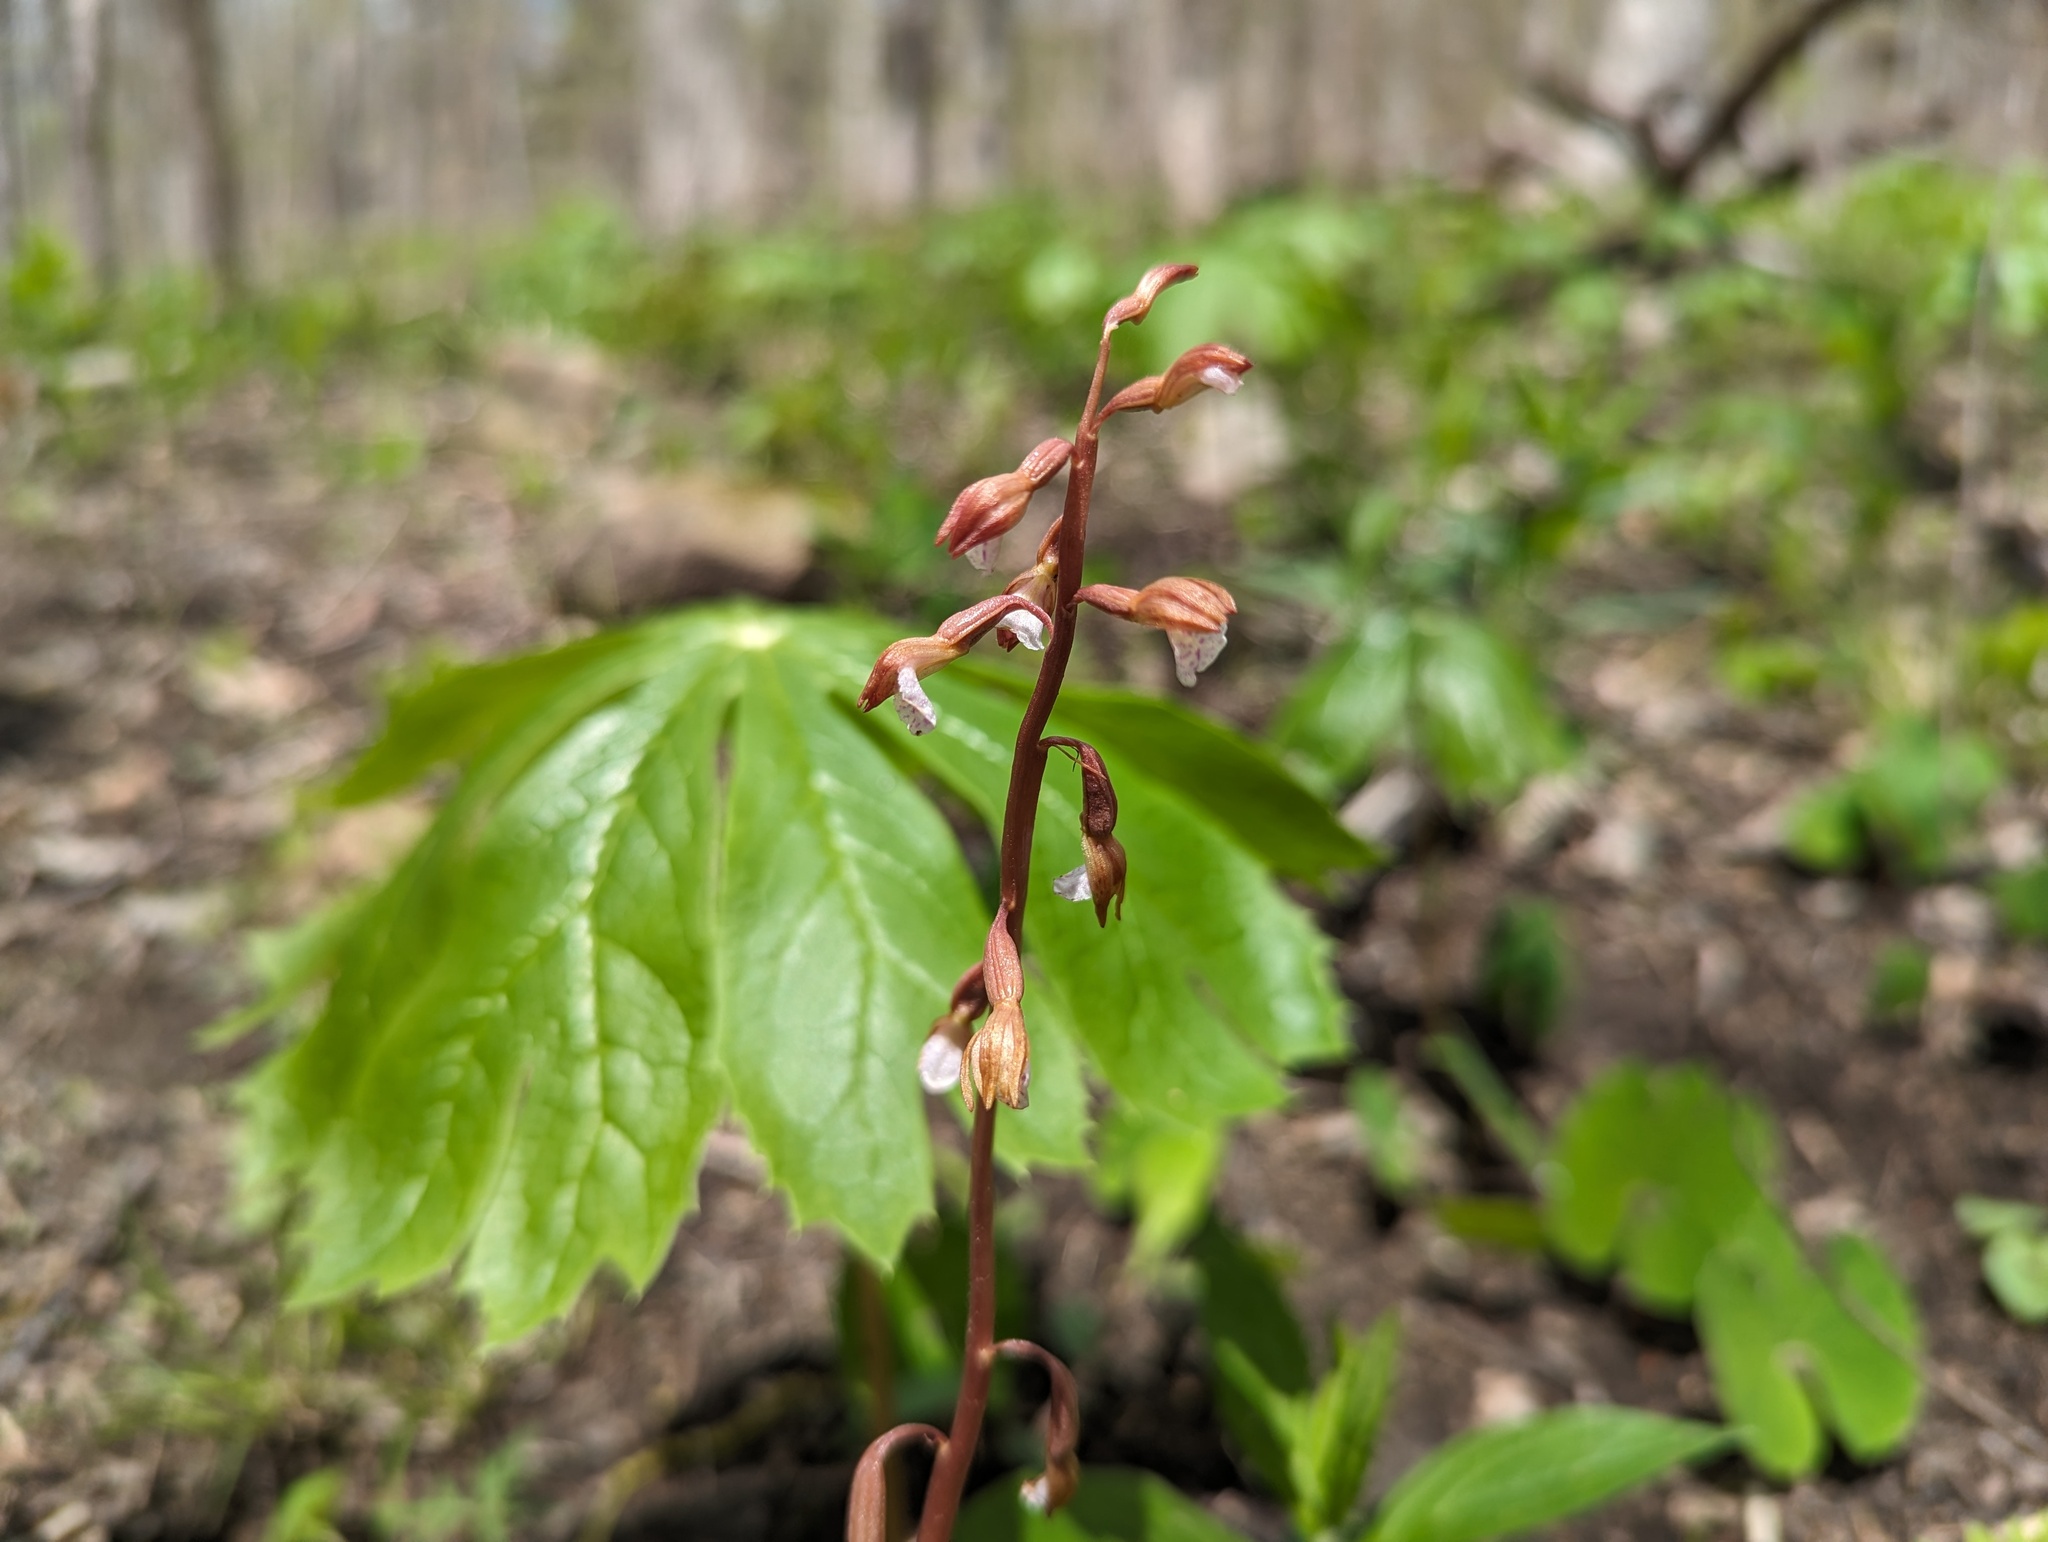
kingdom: Plantae
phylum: Tracheophyta
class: Liliopsida
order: Asparagales
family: Orchidaceae
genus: Corallorhiza
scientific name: Corallorhiza wisteriana
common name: Spring coralroot
